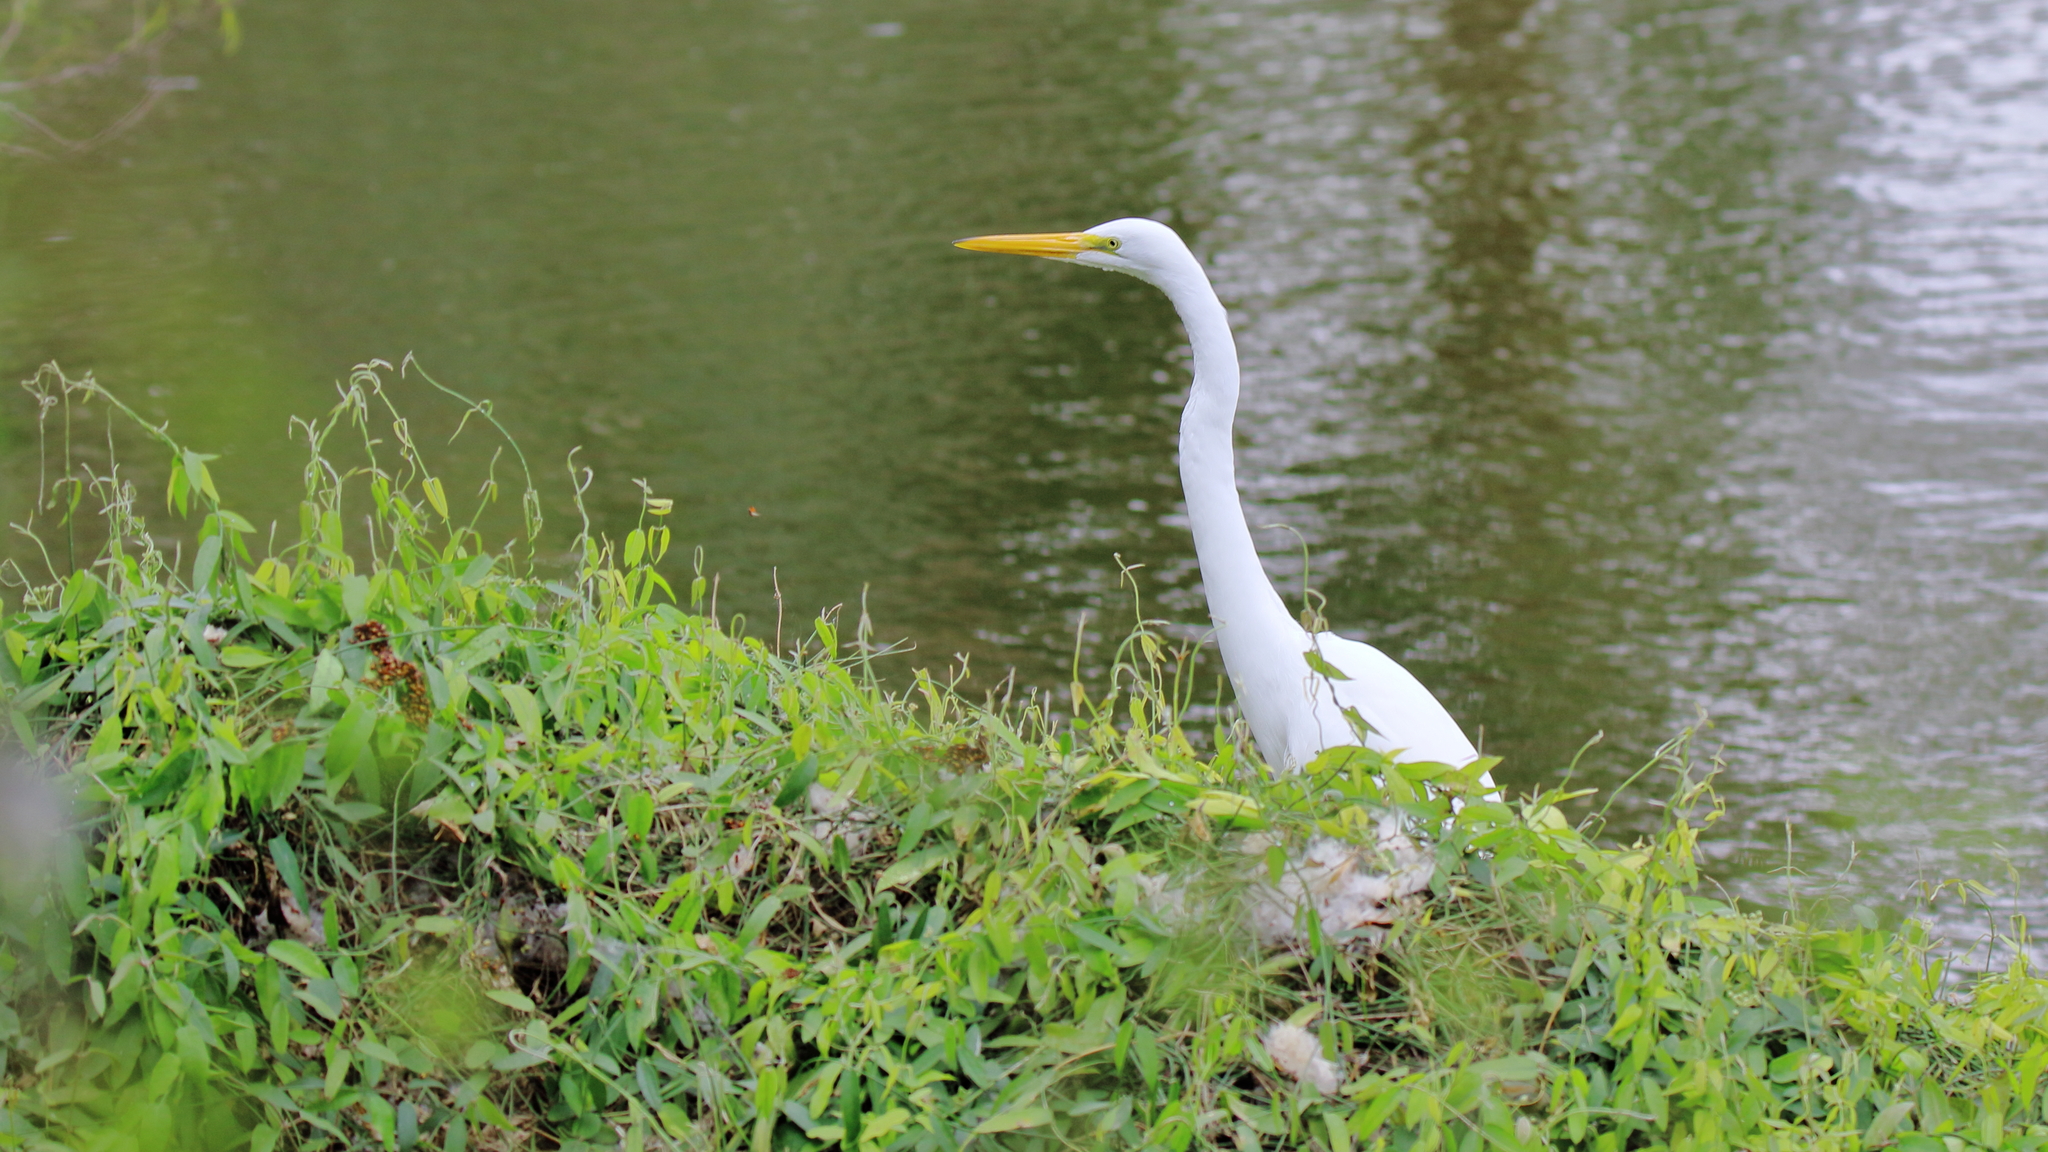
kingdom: Animalia
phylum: Chordata
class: Aves
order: Pelecaniformes
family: Ardeidae
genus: Ardea
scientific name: Ardea alba
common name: Great egret
